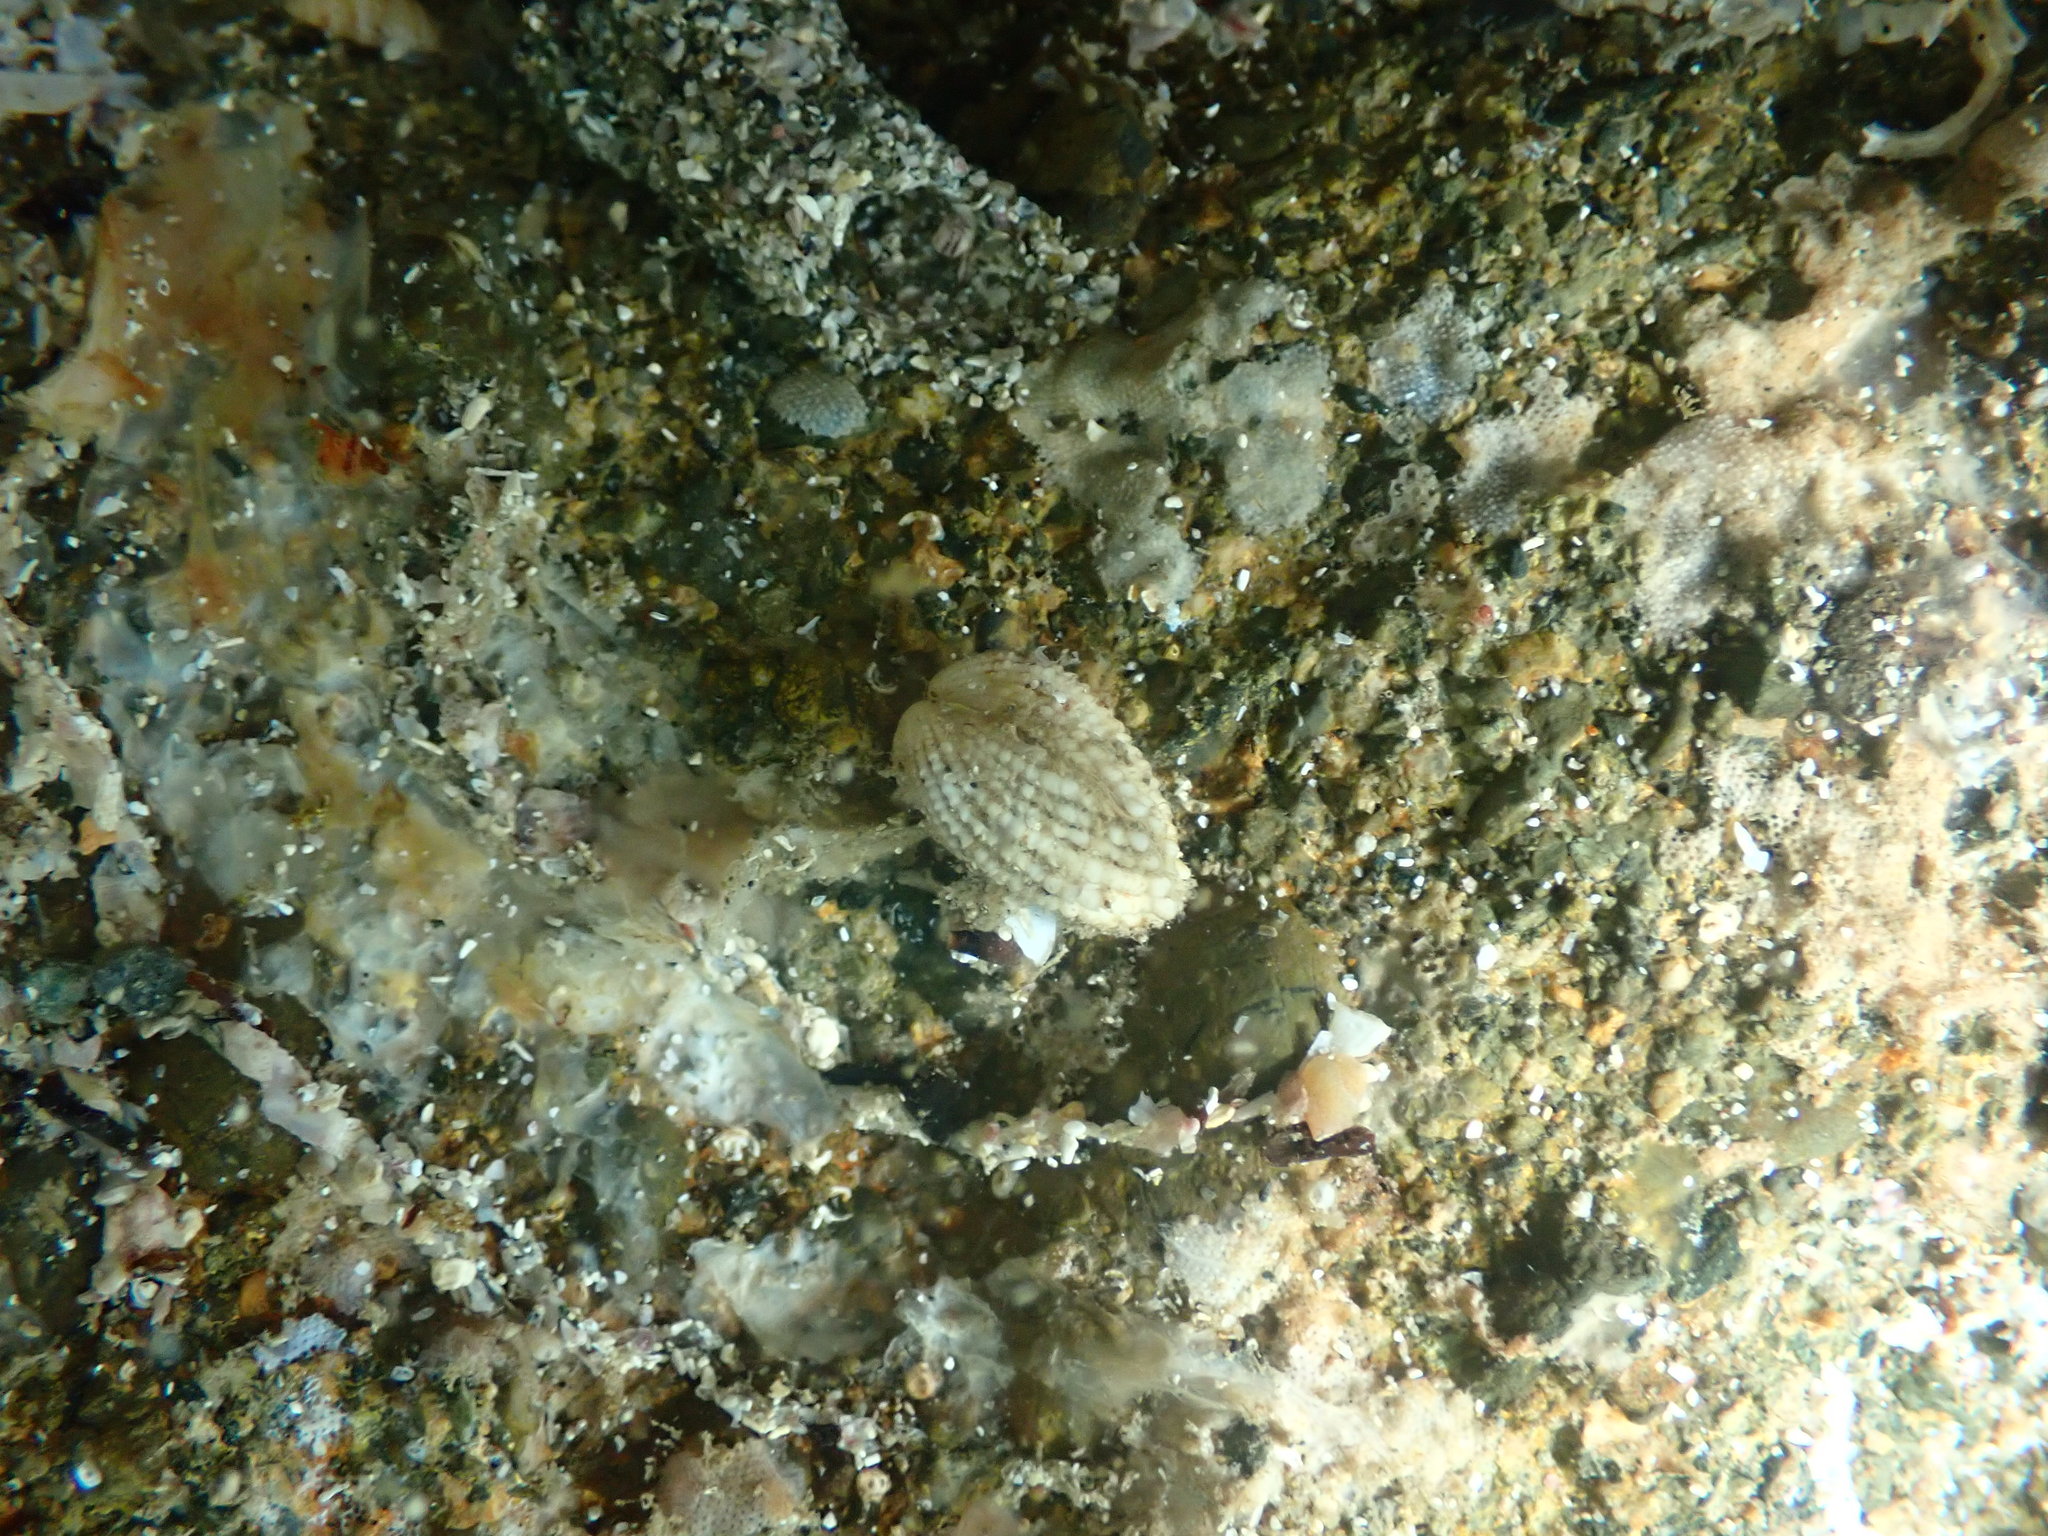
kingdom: Animalia
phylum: Mollusca
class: Bivalvia
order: Carditida
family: Carditidae
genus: Powellina
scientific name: Powellina brookesi
